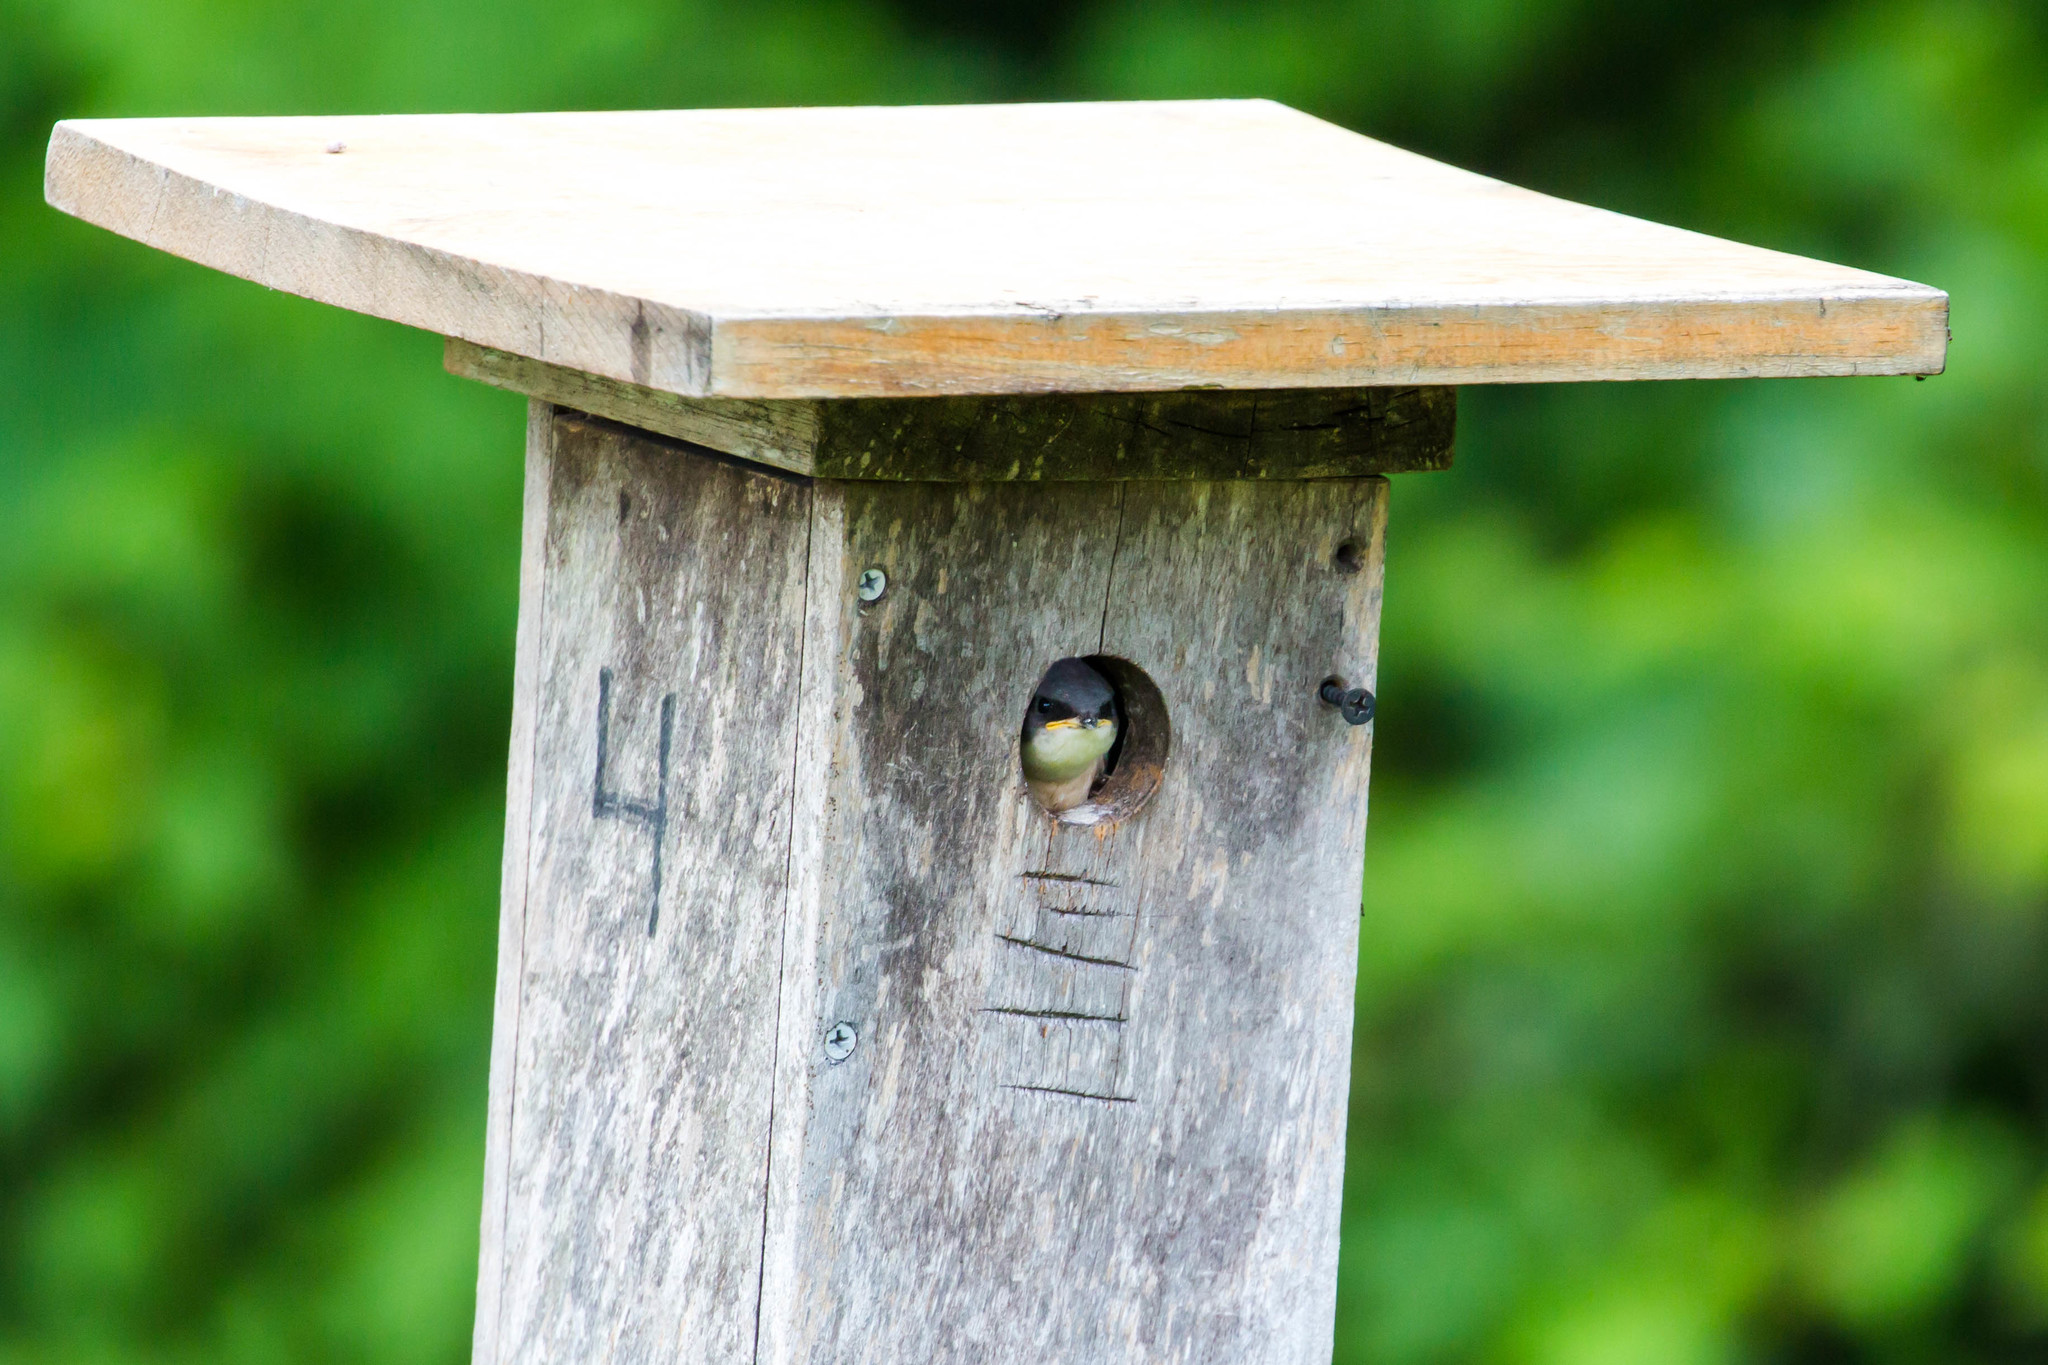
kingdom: Animalia
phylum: Chordata
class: Aves
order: Passeriformes
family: Hirundinidae
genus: Tachycineta
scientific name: Tachycineta bicolor
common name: Tree swallow
